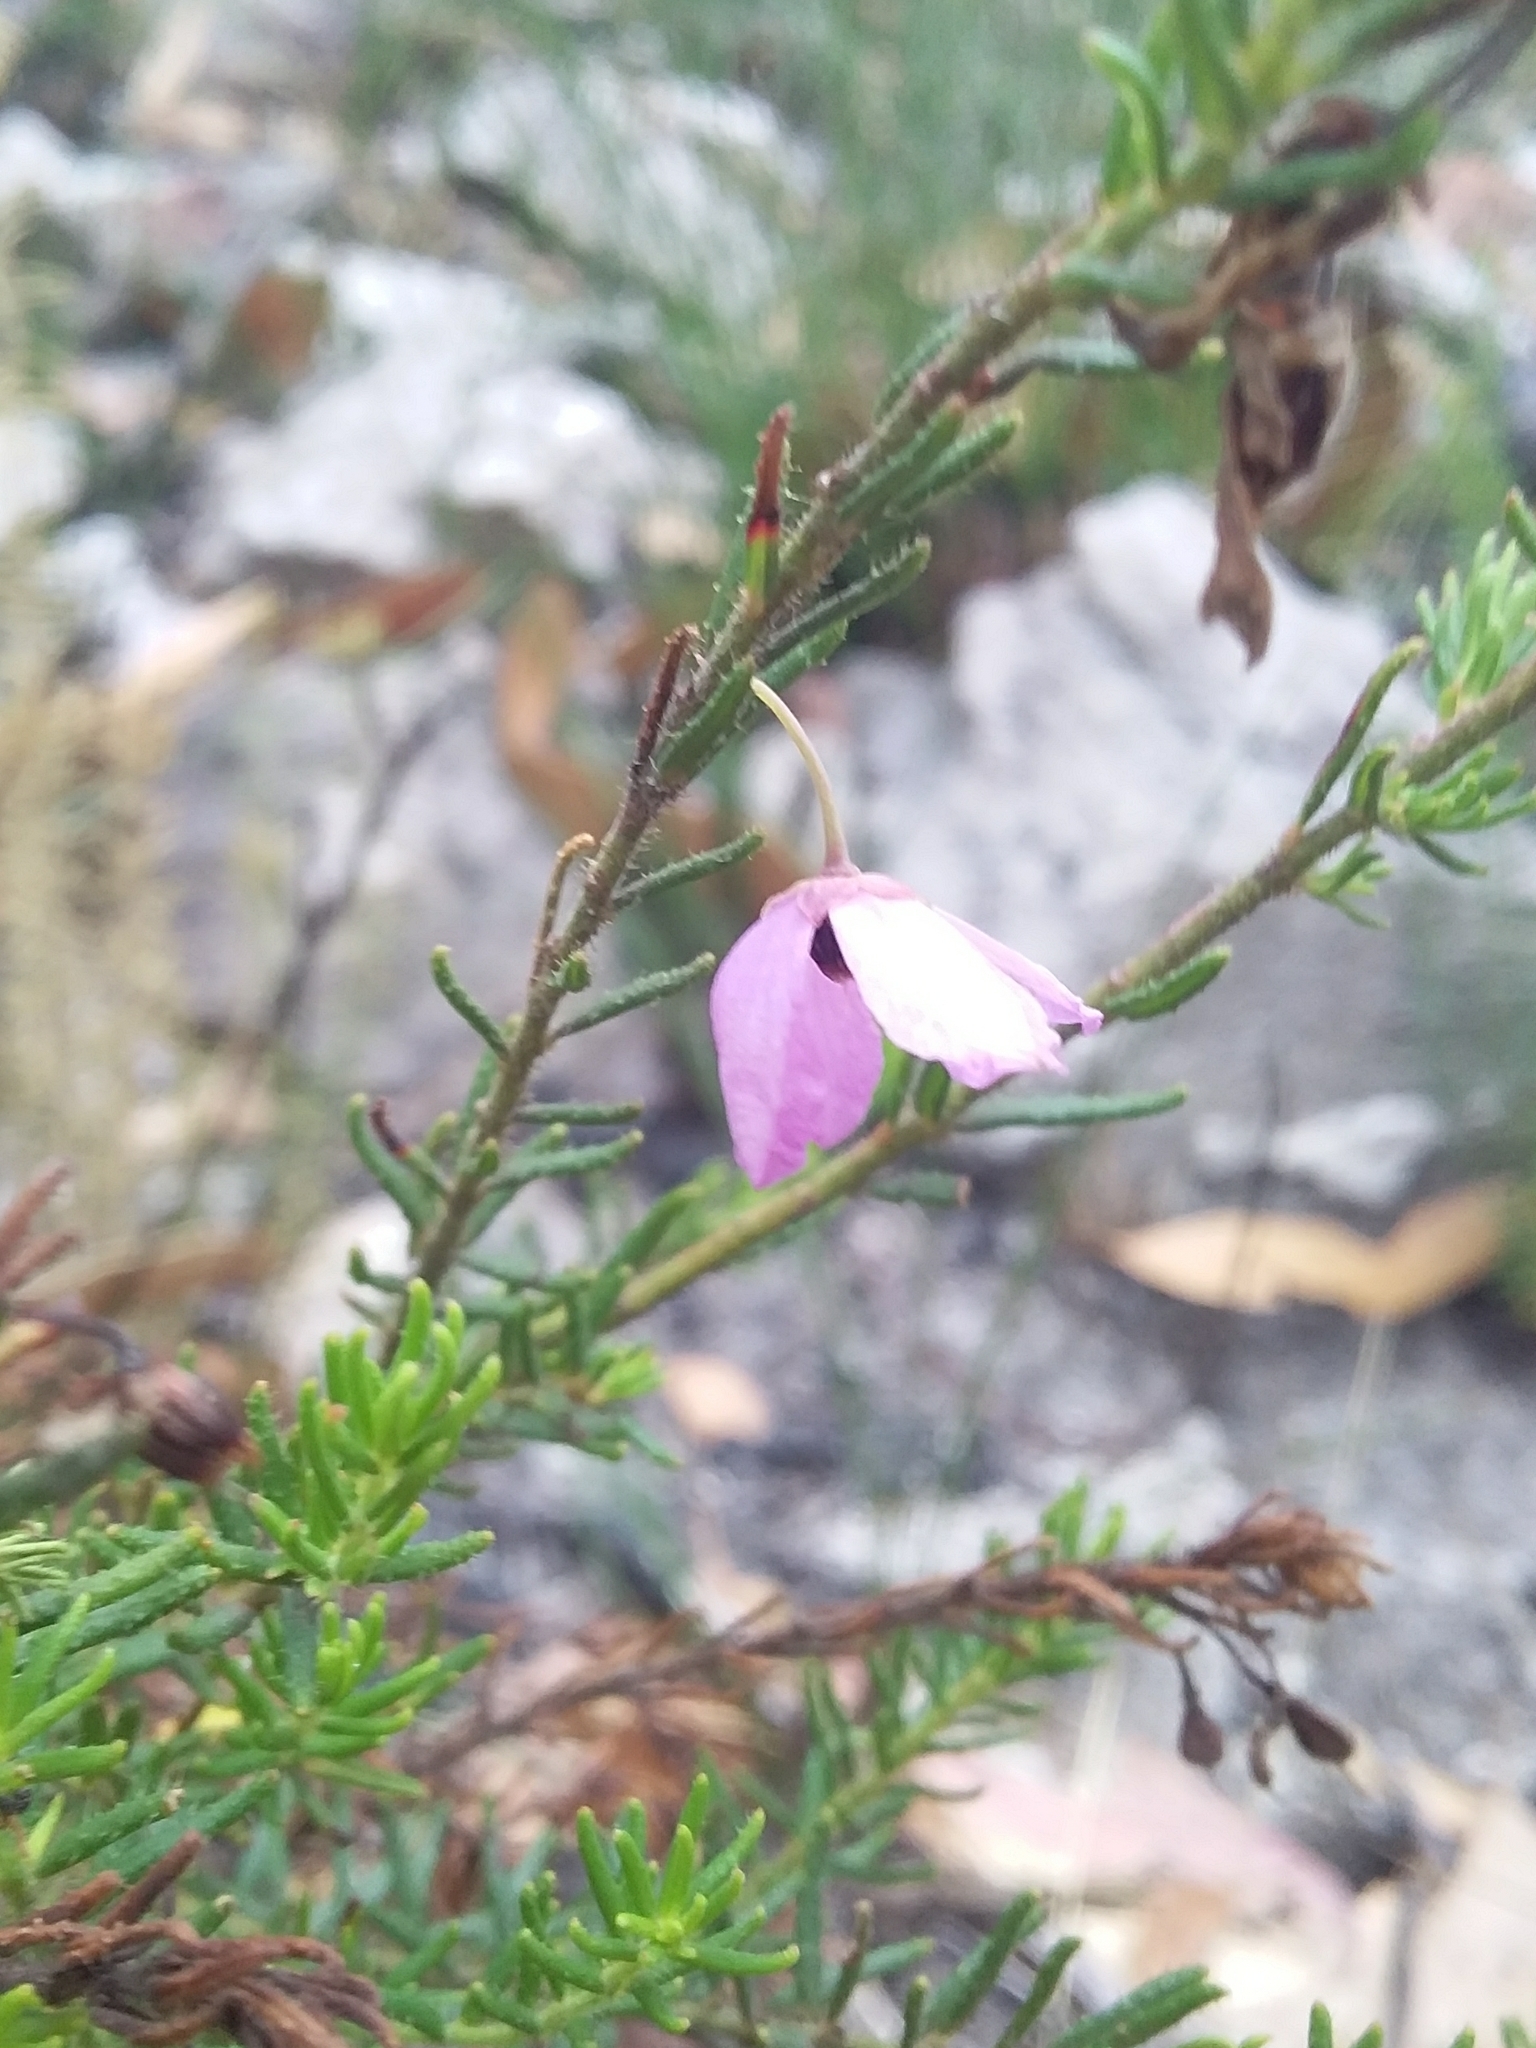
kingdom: Plantae
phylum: Tracheophyta
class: Magnoliopsida
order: Oxalidales
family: Elaeocarpaceae
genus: Tetratheca
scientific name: Tetratheca pilosa
